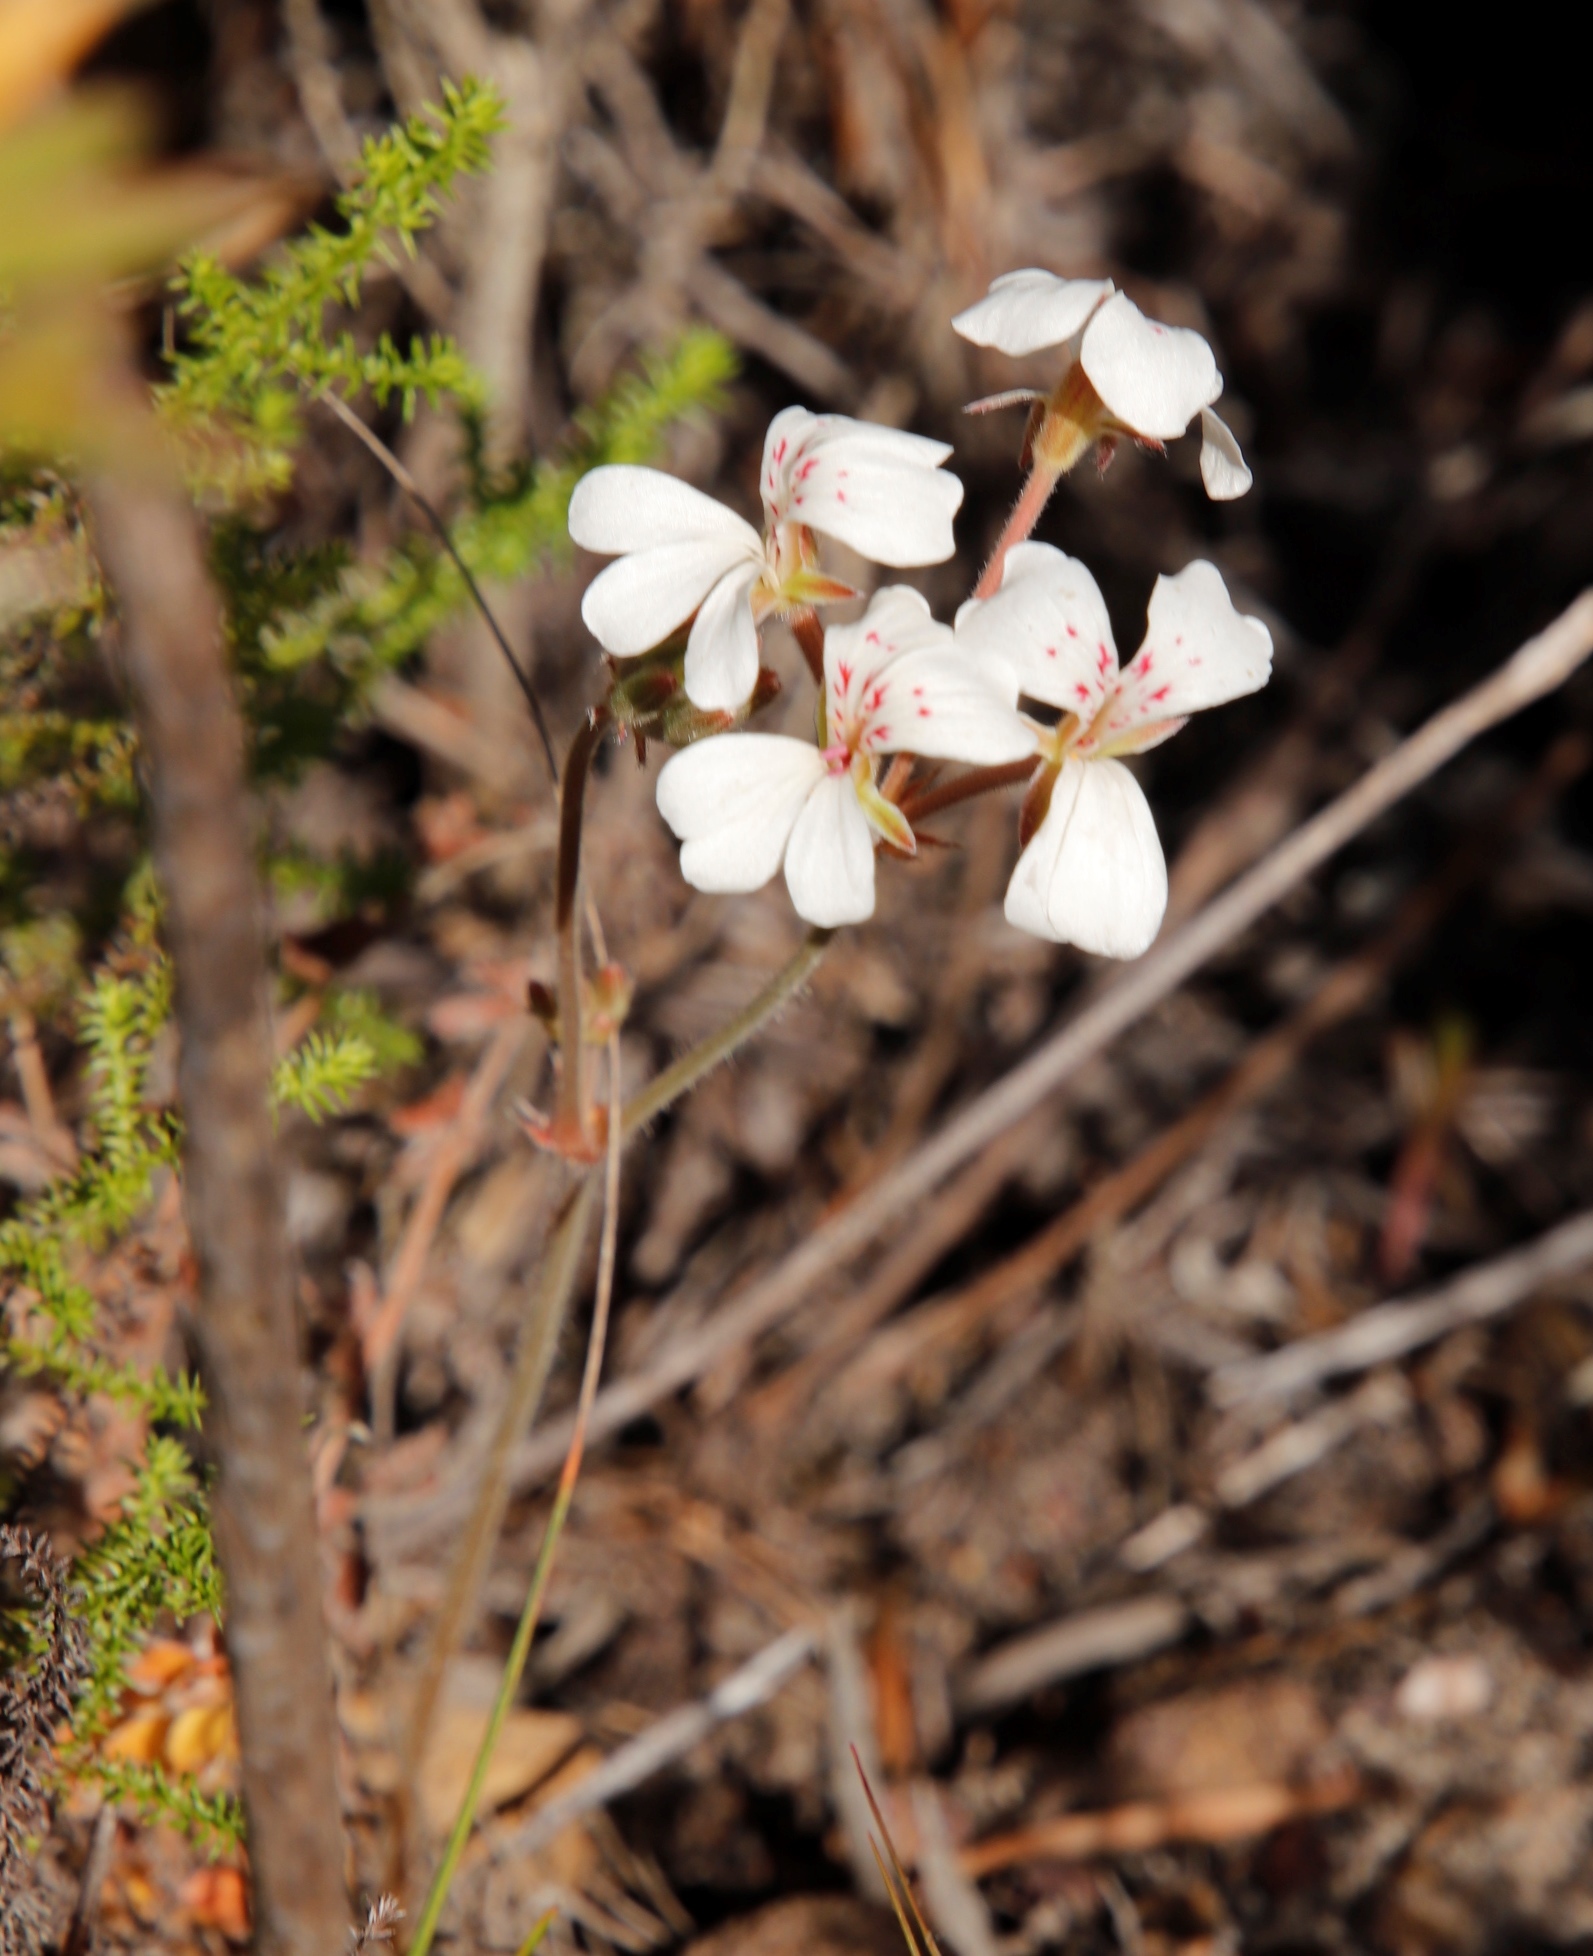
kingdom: Plantae
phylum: Tracheophyta
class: Magnoliopsida
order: Geraniales
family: Geraniaceae
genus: Pelargonium
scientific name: Pelargonium pinnatum
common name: Pinnated pelargonium
